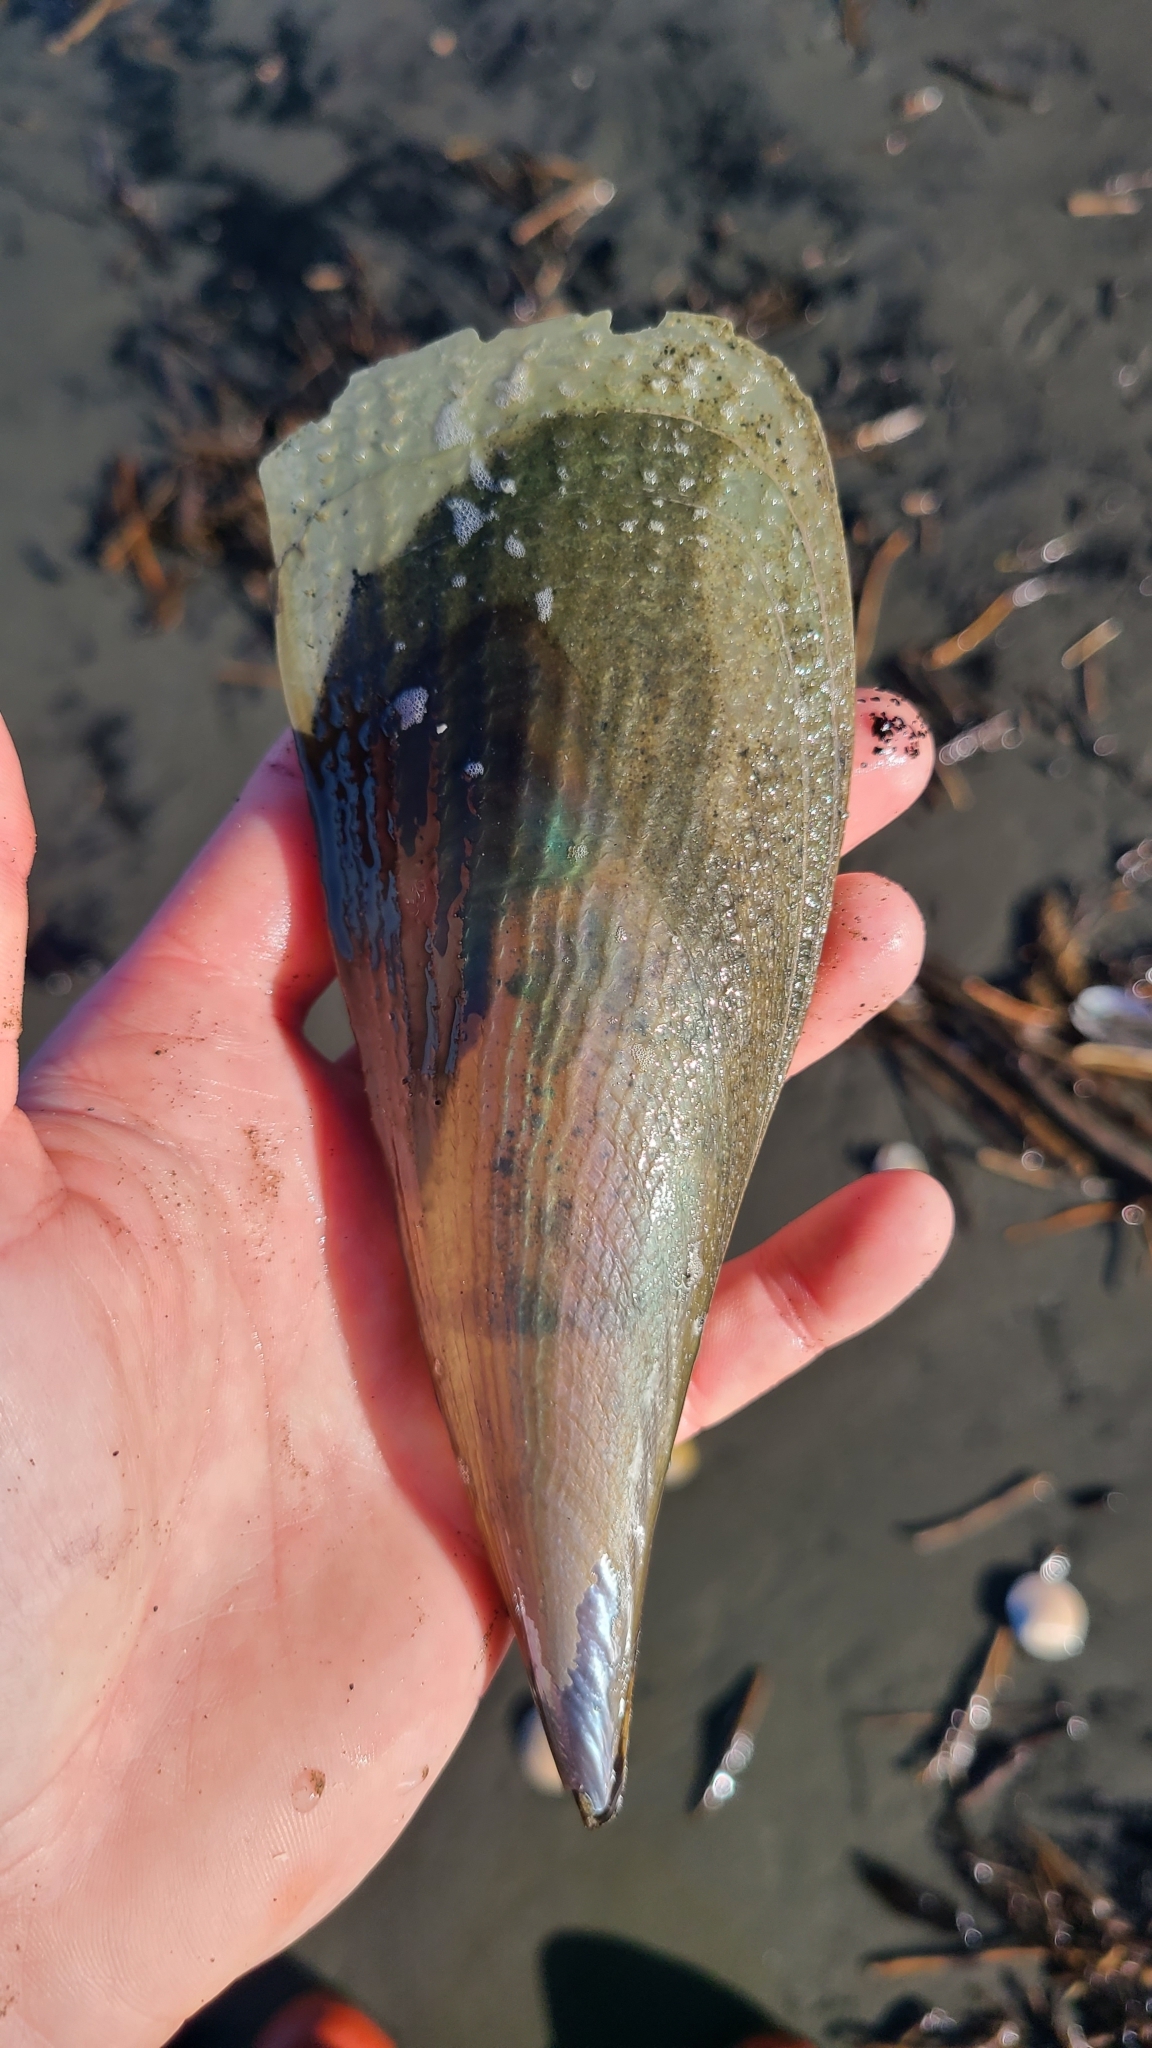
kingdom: Animalia
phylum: Mollusca
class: Bivalvia
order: Ostreida
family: Pinnidae
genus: Atrina
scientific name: Atrina zelandica
